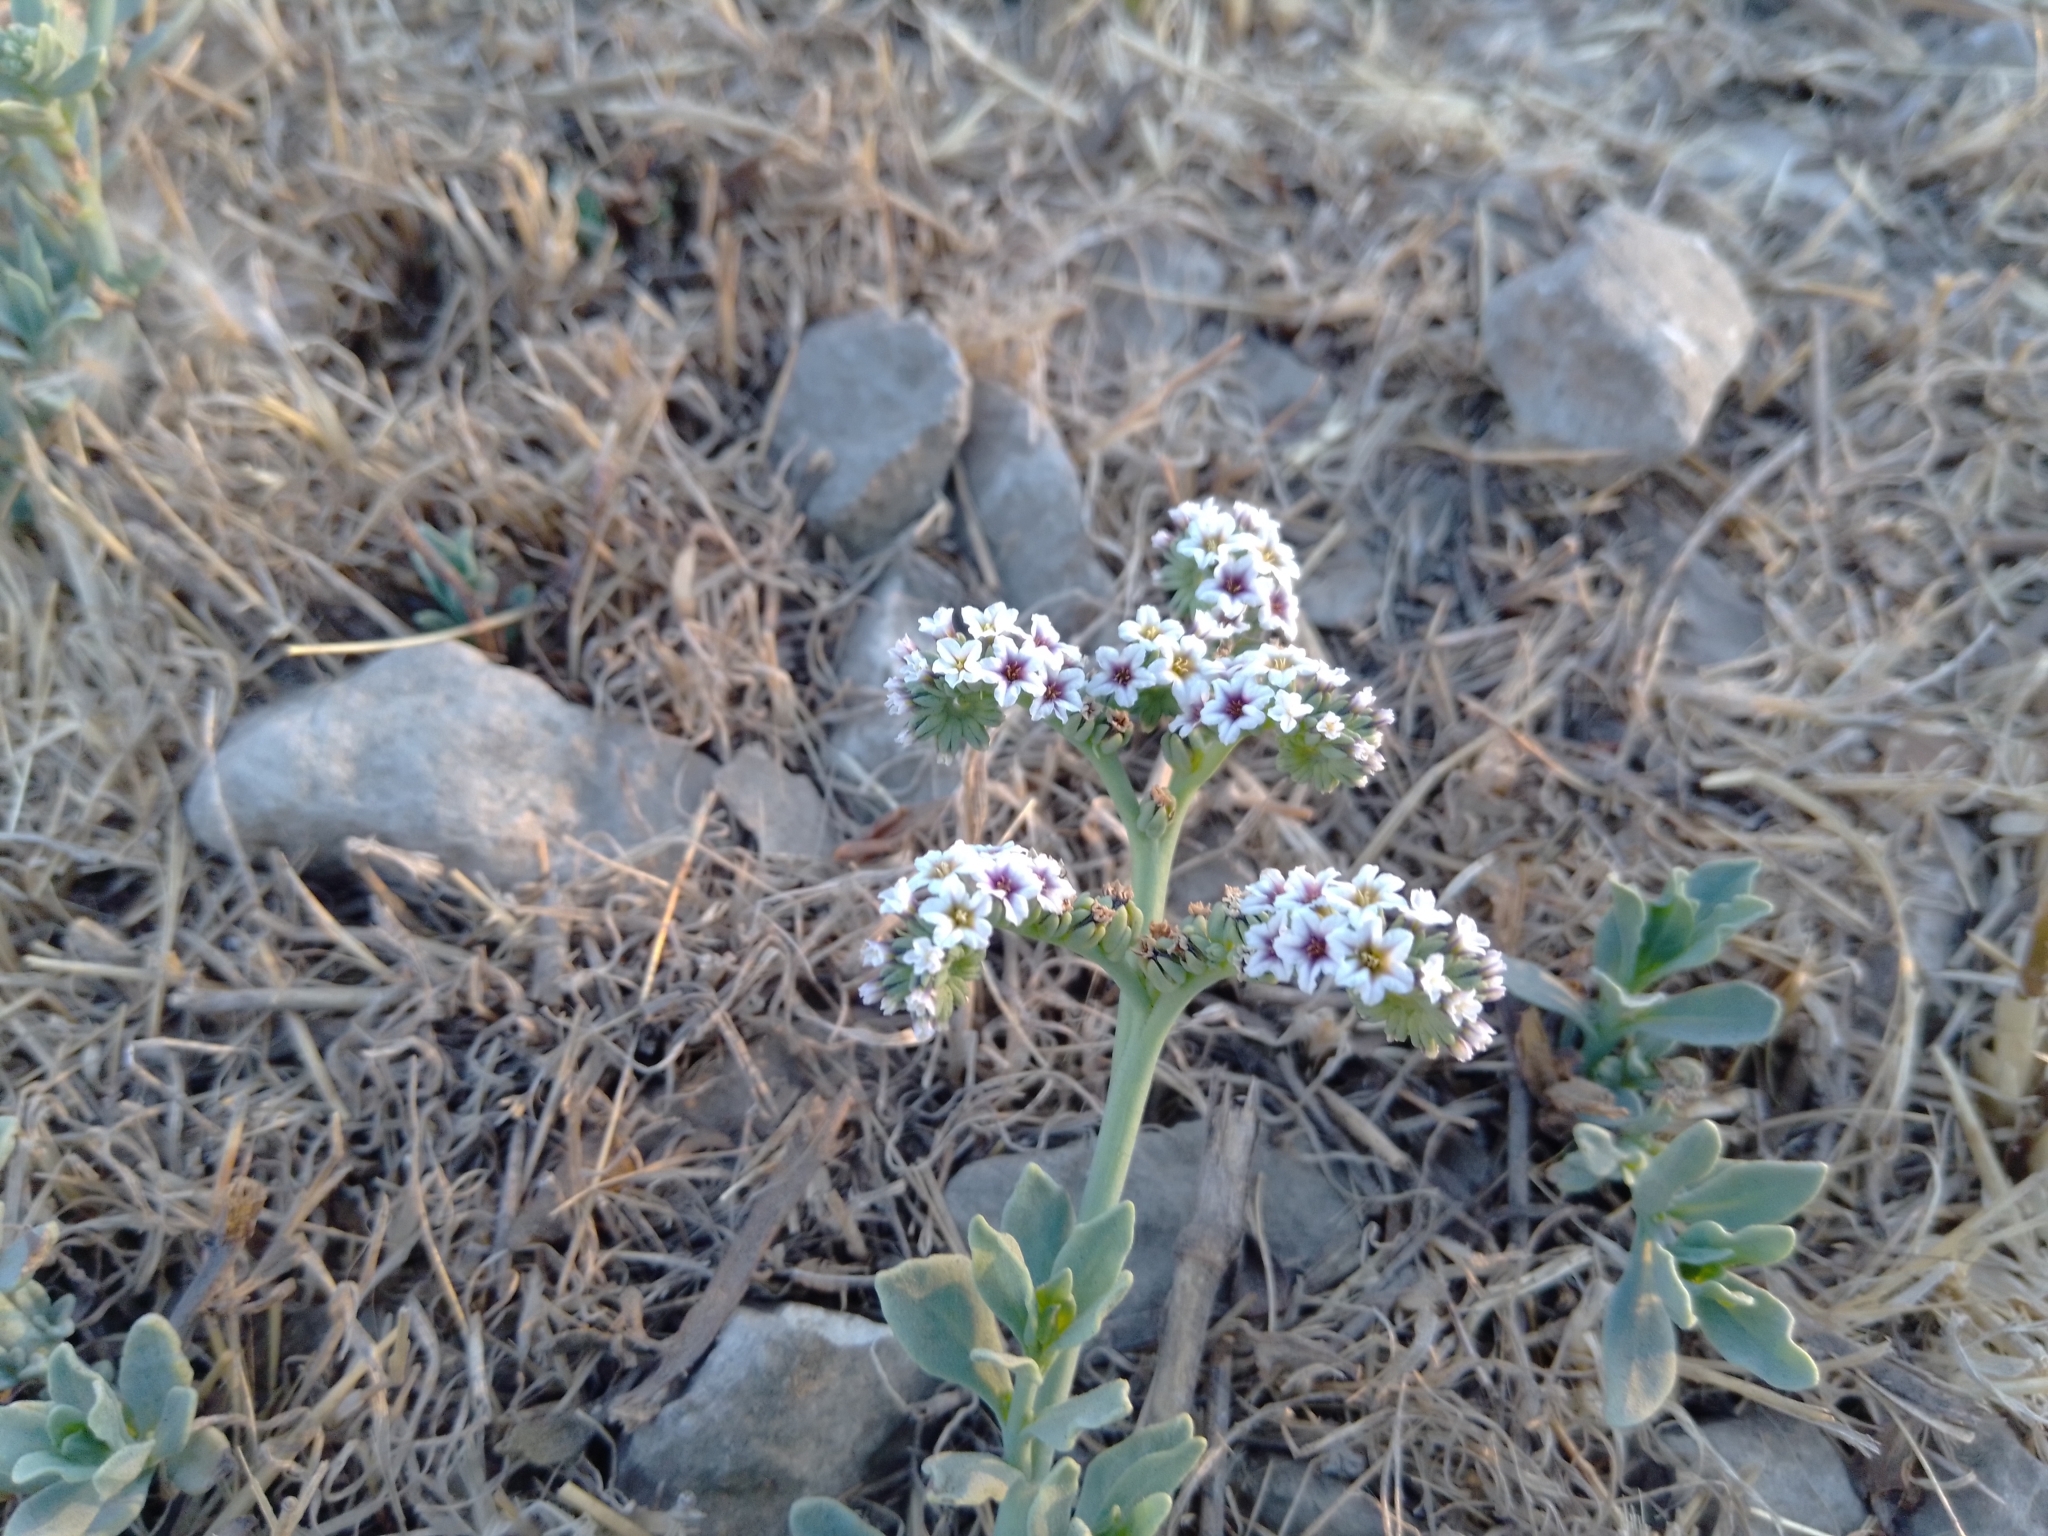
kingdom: Plantae
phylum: Tracheophyta
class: Magnoliopsida
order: Boraginales
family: Heliotropiaceae
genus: Heliotropium
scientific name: Heliotropium curassavicum
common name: Seaside heliotrope
